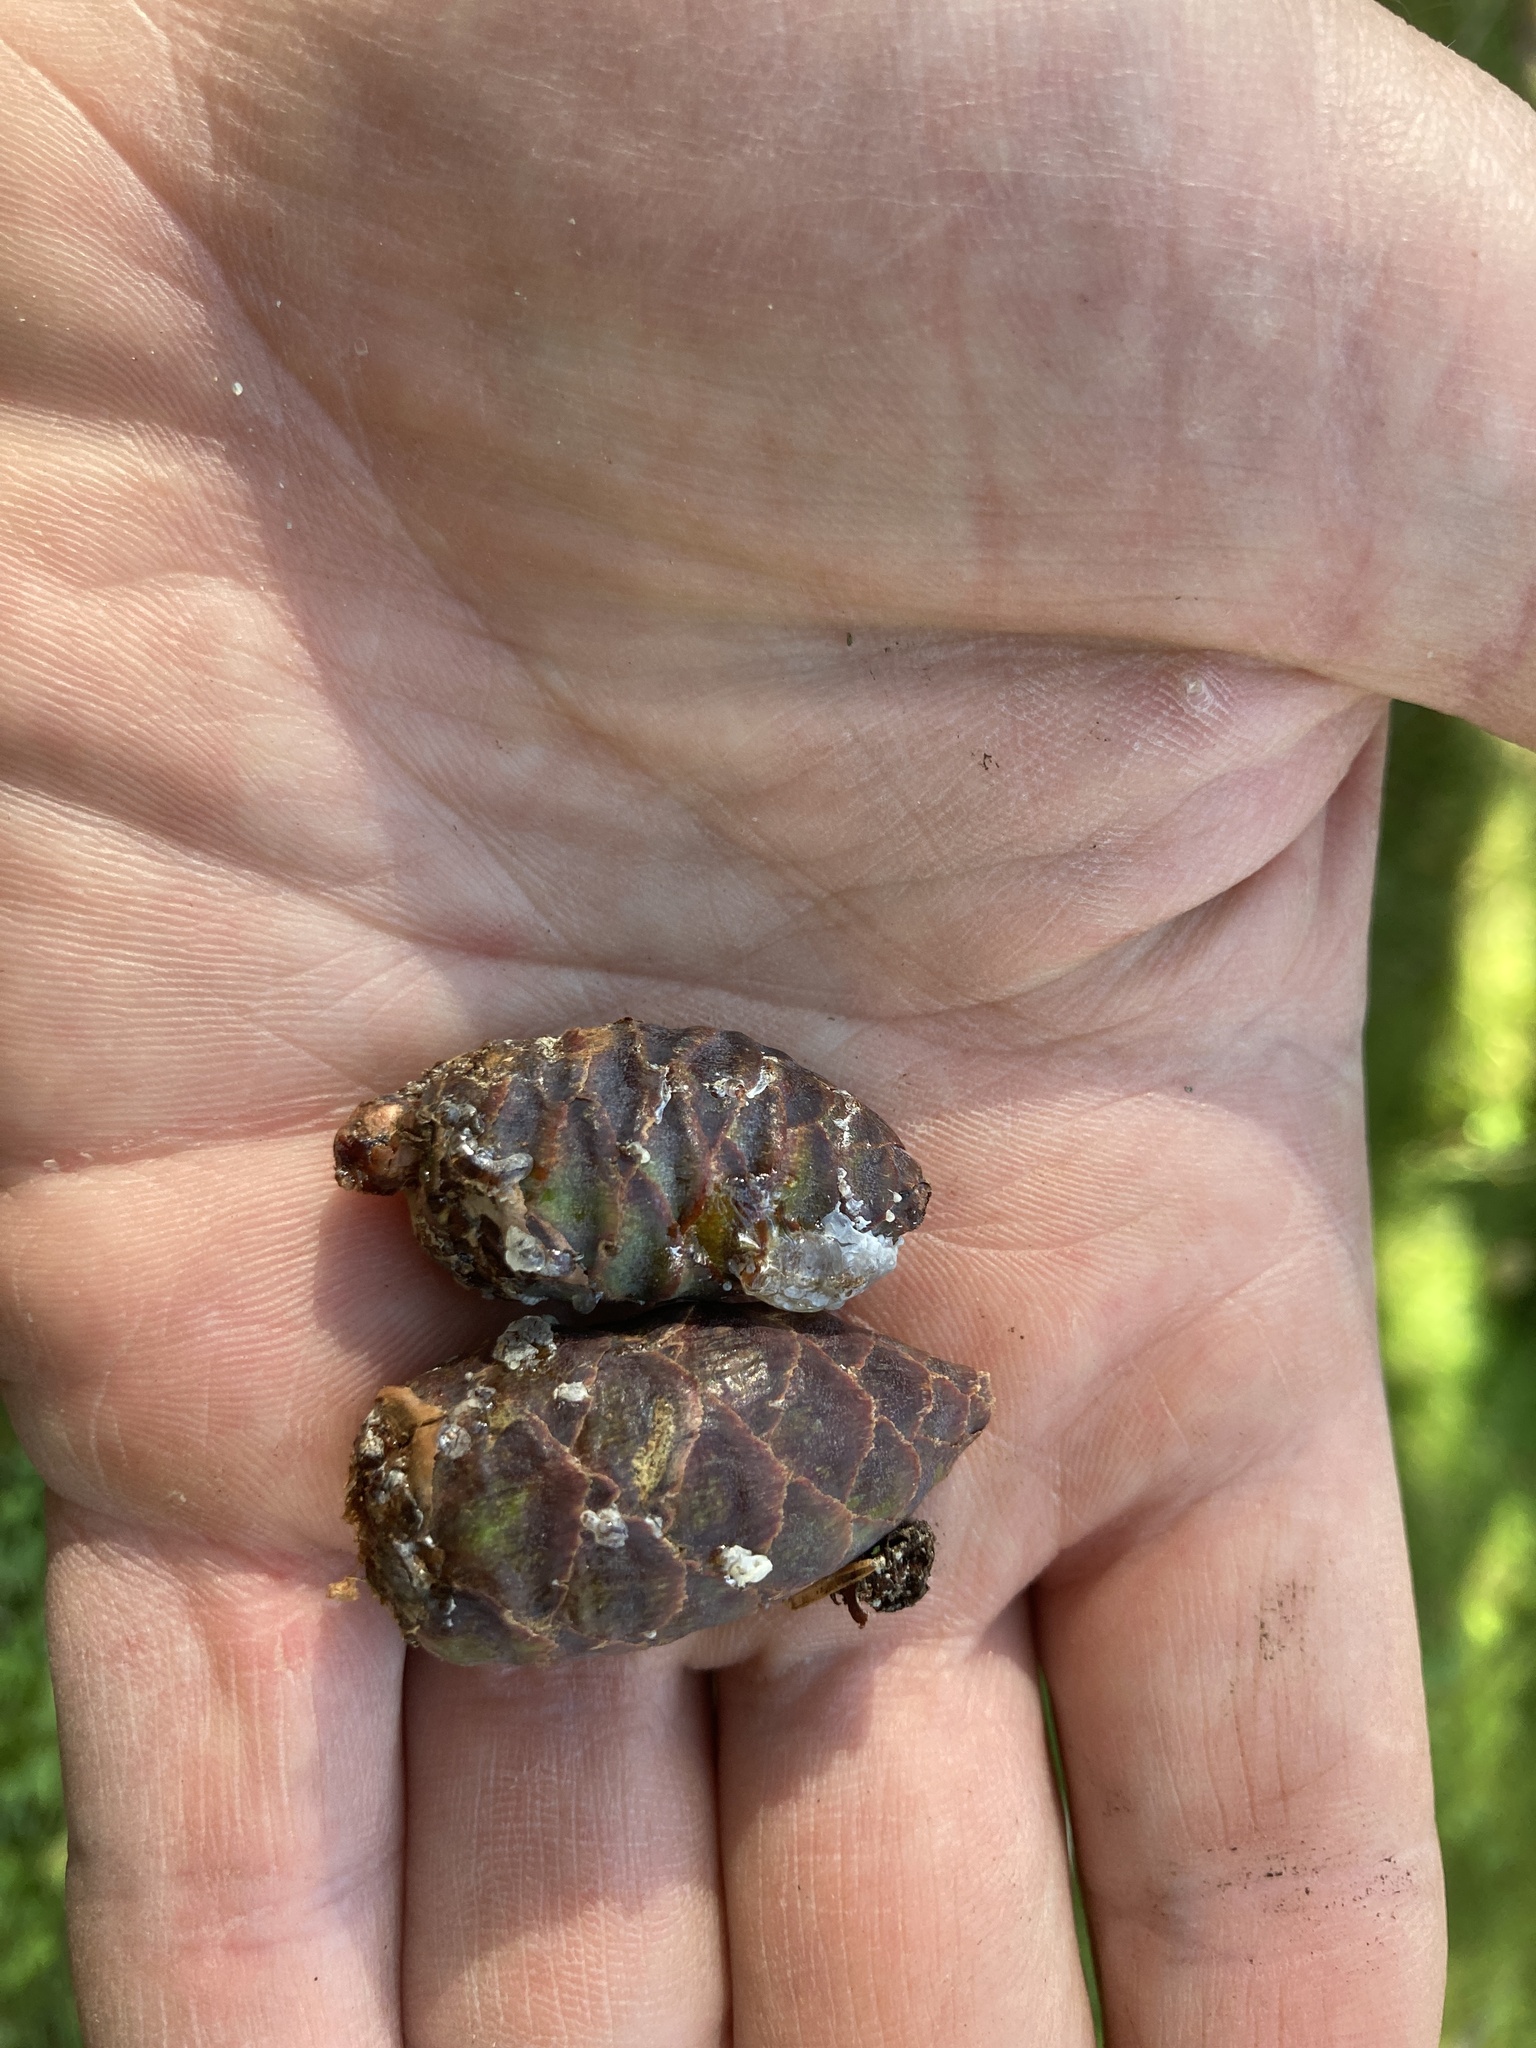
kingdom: Plantae
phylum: Tracheophyta
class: Pinopsida
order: Pinales
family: Pinaceae
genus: Picea
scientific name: Picea mariana
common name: Black spruce
